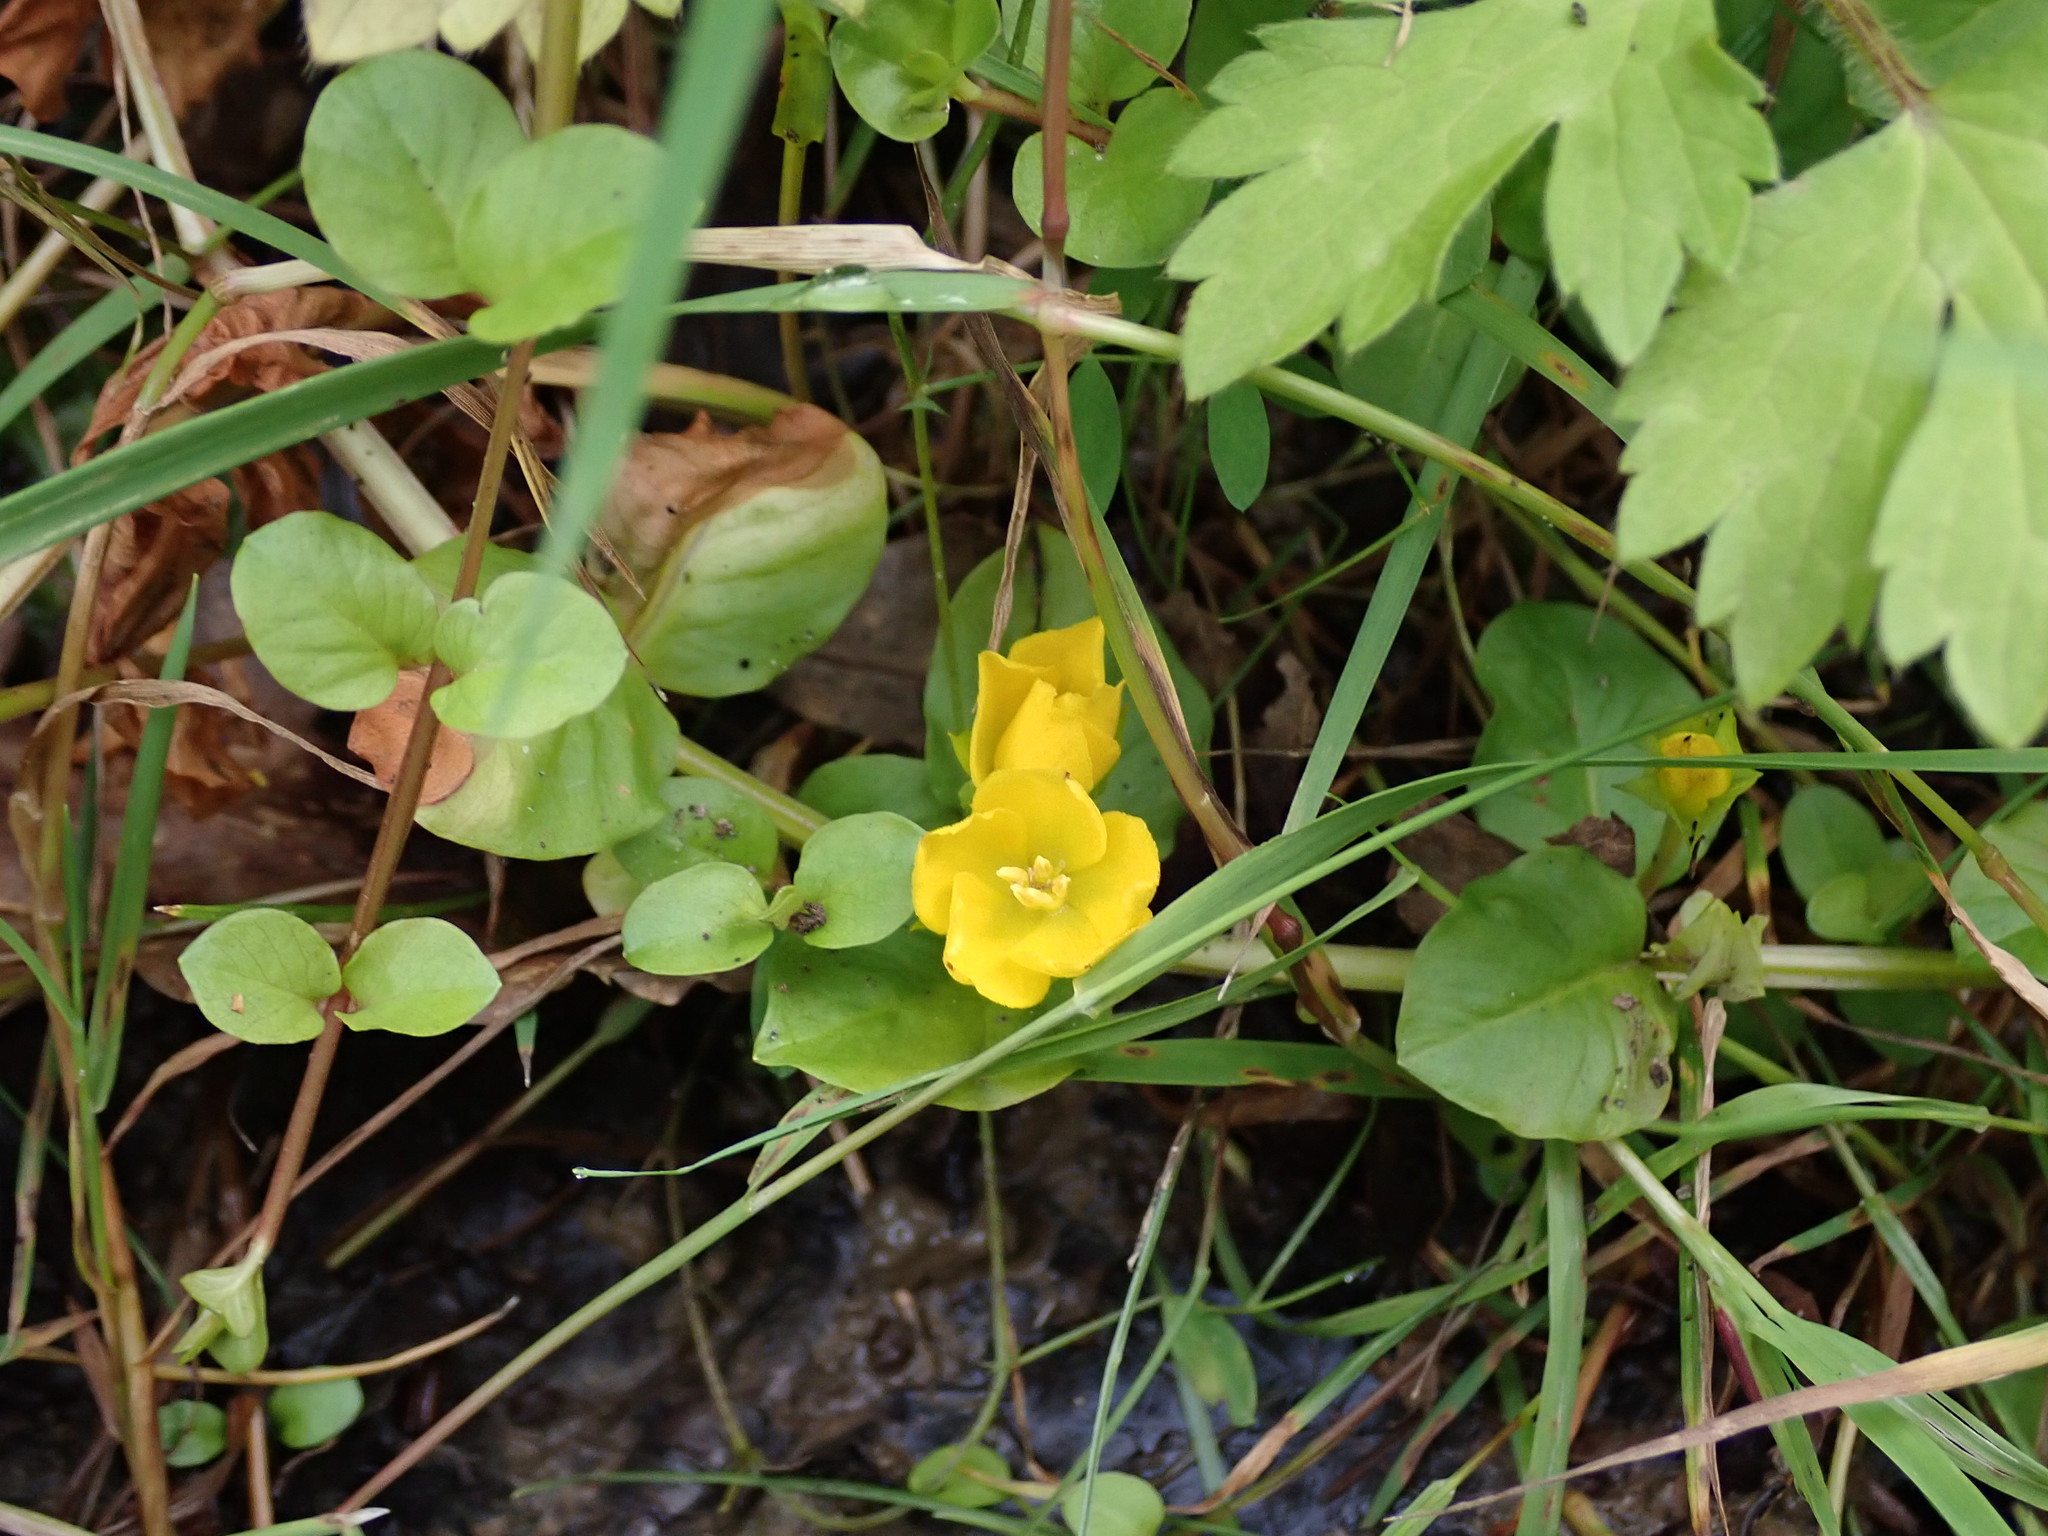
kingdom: Plantae
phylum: Tracheophyta
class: Magnoliopsida
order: Ericales
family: Primulaceae
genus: Lysimachia
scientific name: Lysimachia nummularia
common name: Moneywort
